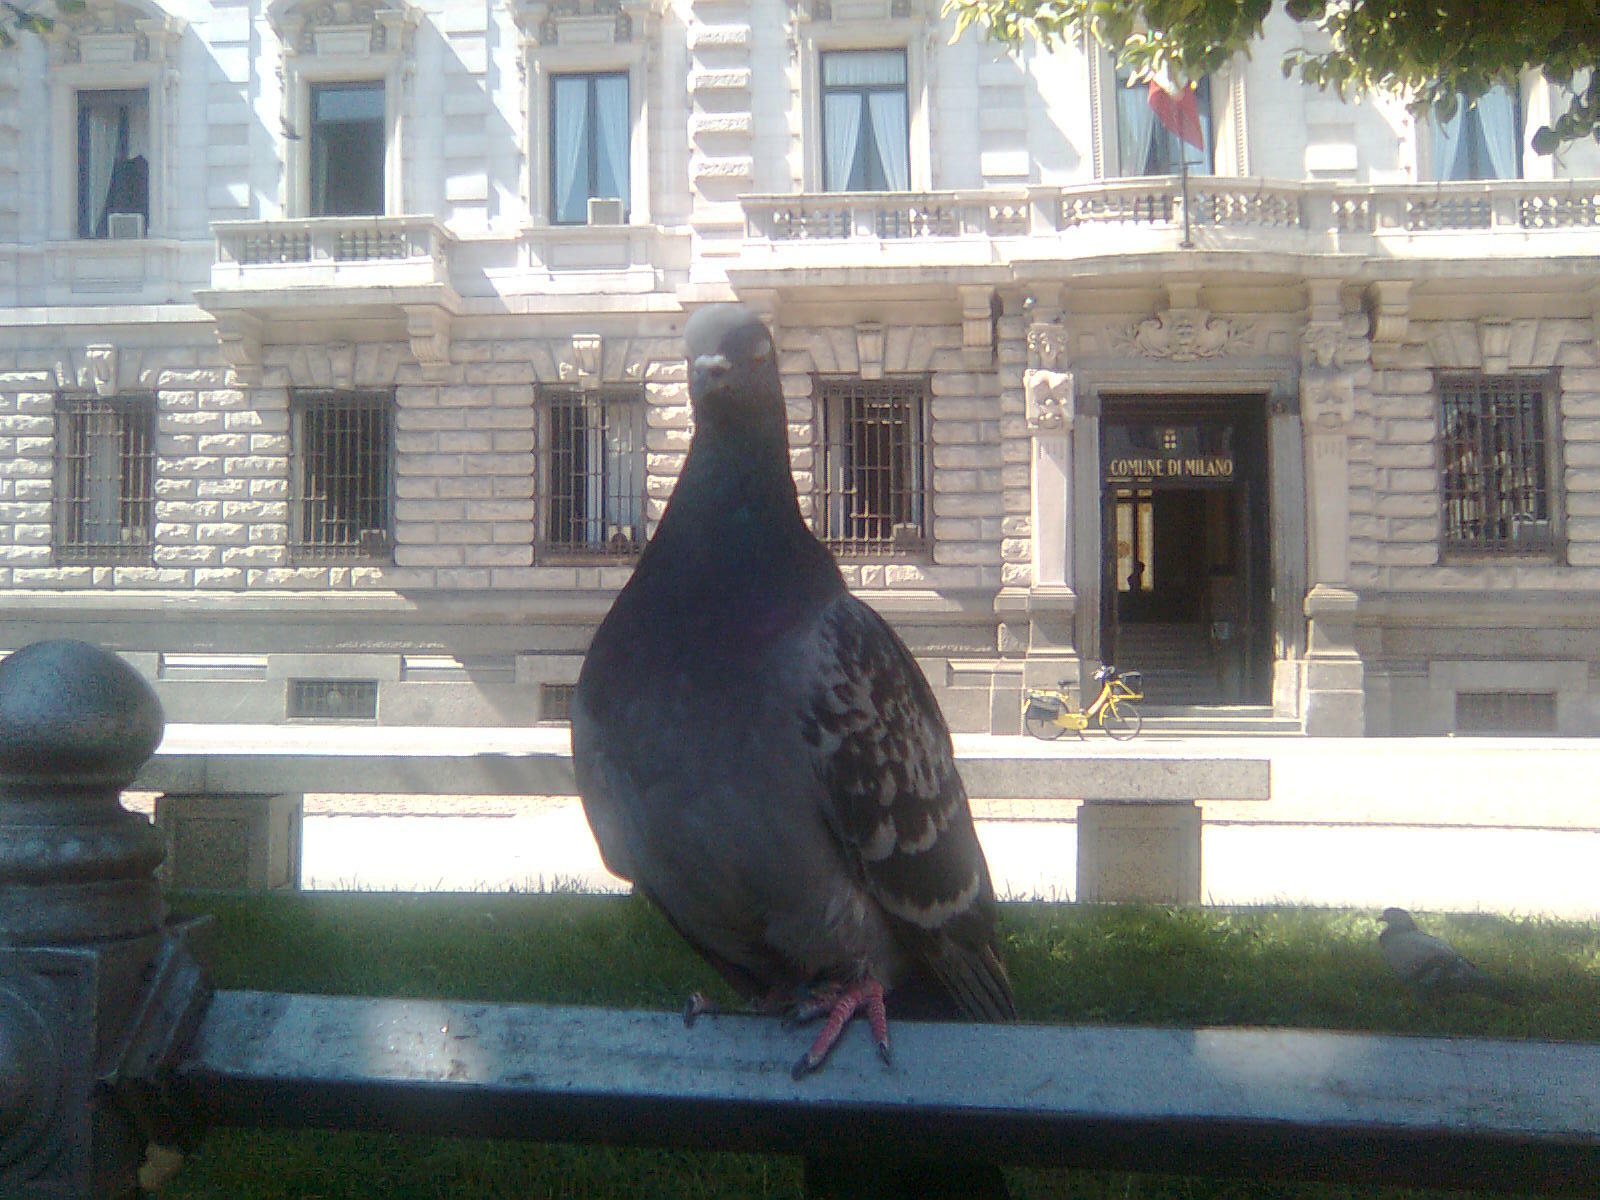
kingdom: Animalia
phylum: Chordata
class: Aves
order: Columbiformes
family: Columbidae
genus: Columba
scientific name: Columba livia
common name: Rock pigeon
